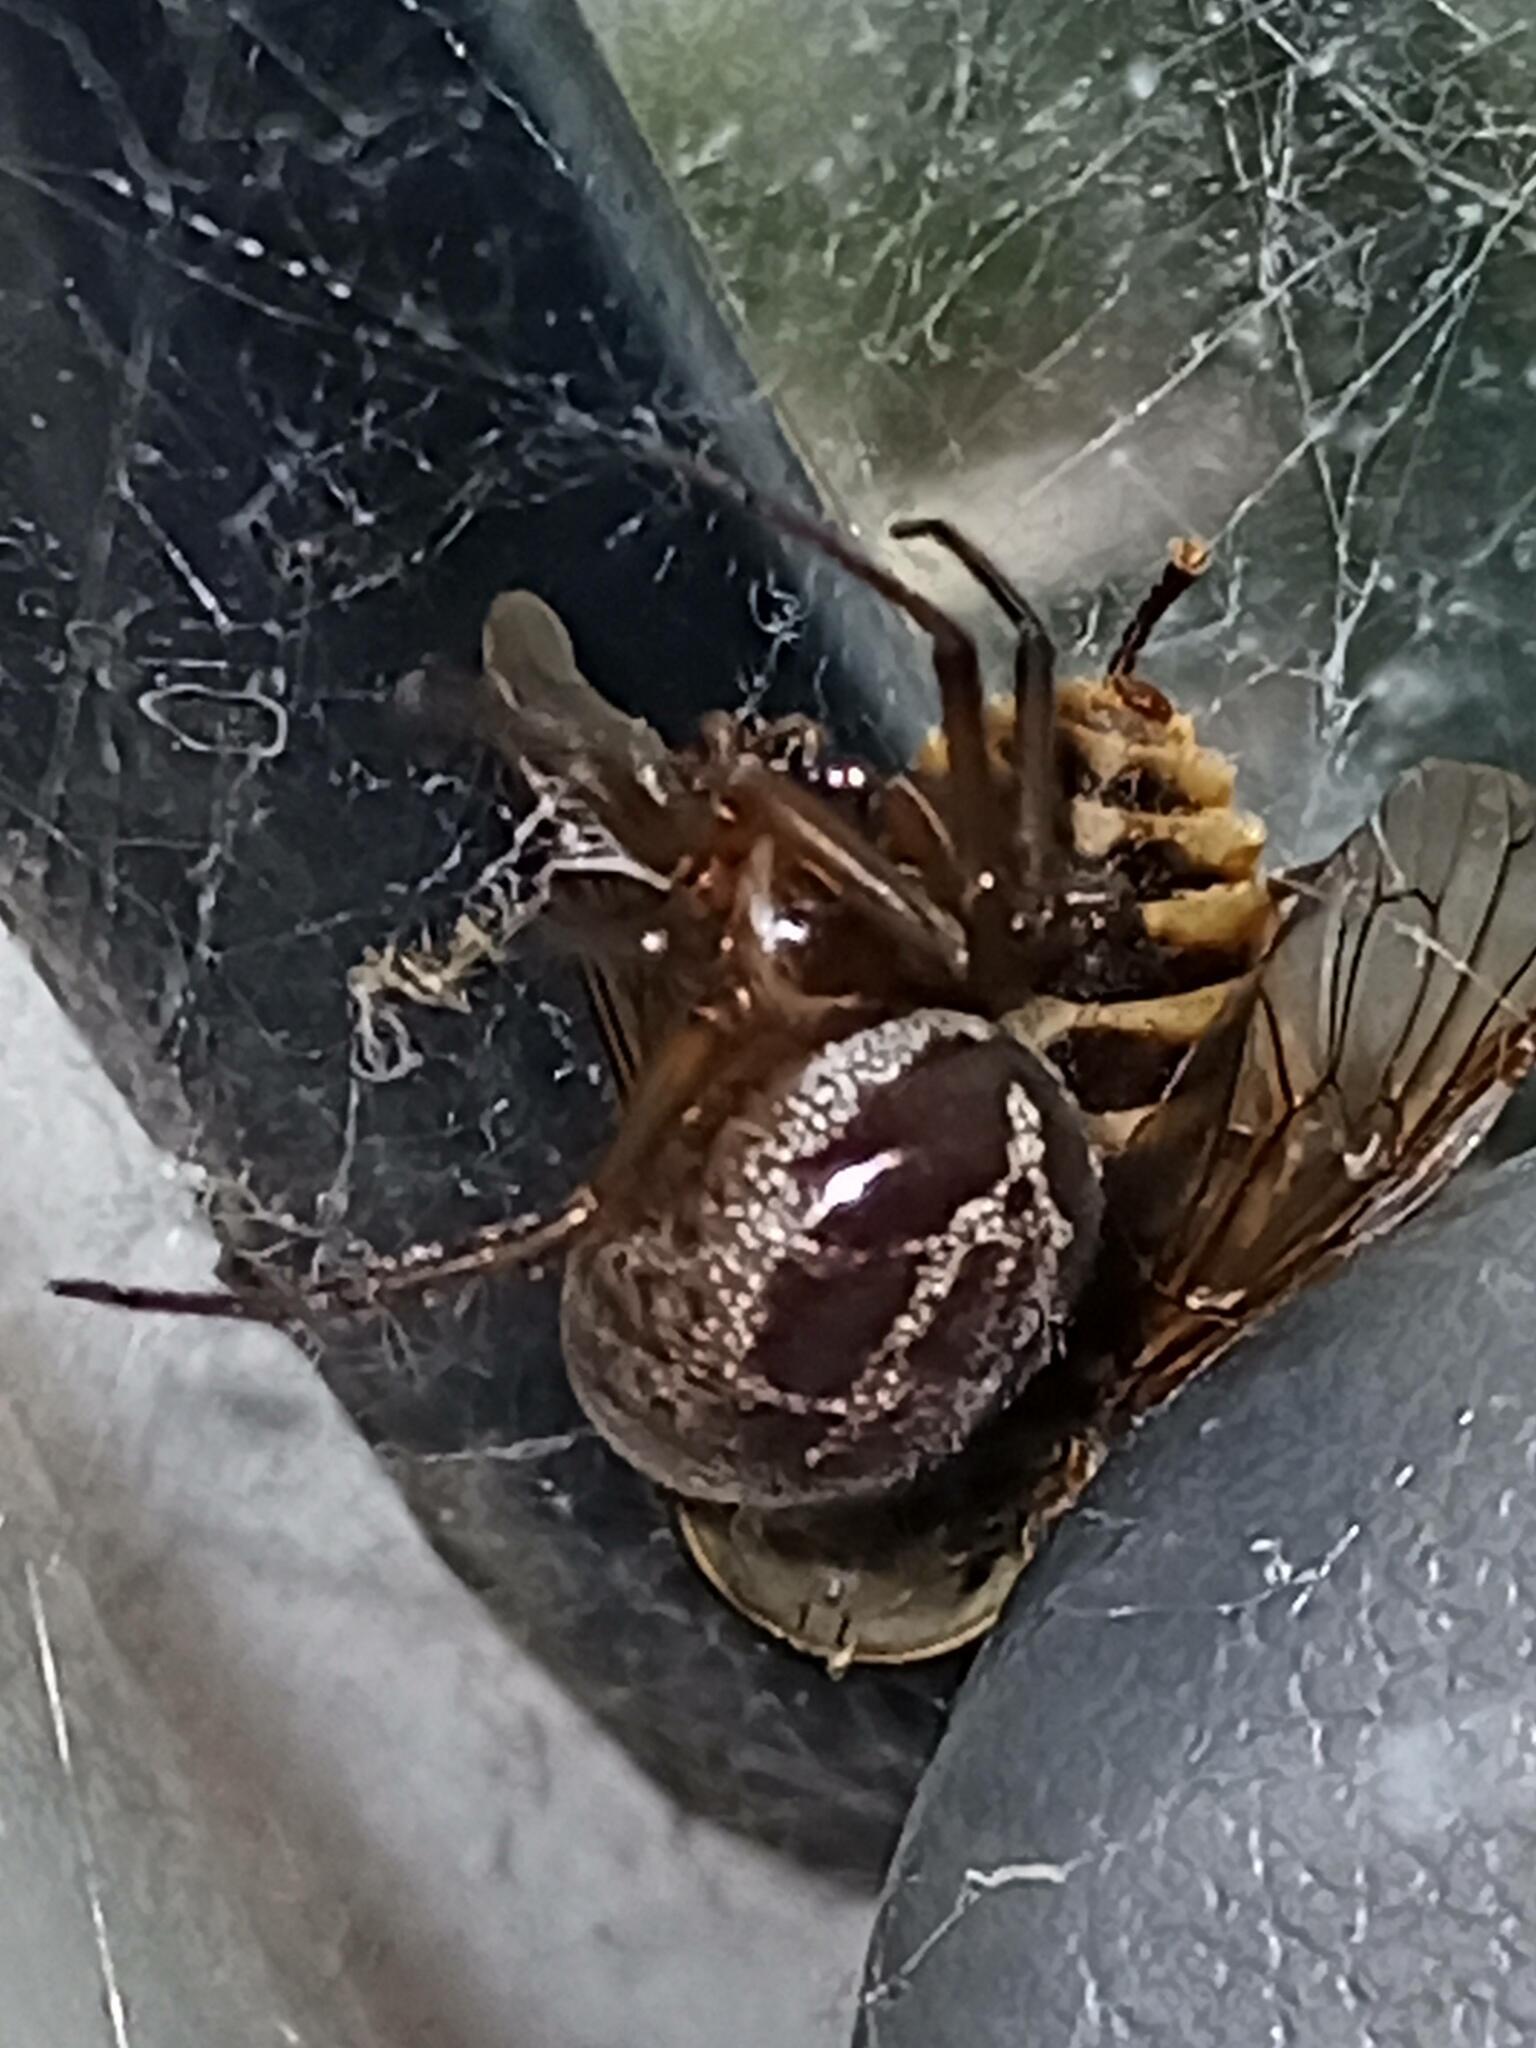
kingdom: Animalia
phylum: Arthropoda
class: Arachnida
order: Araneae
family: Theridiidae
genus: Steatoda
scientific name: Steatoda nobilis
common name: Cobweb weaver
